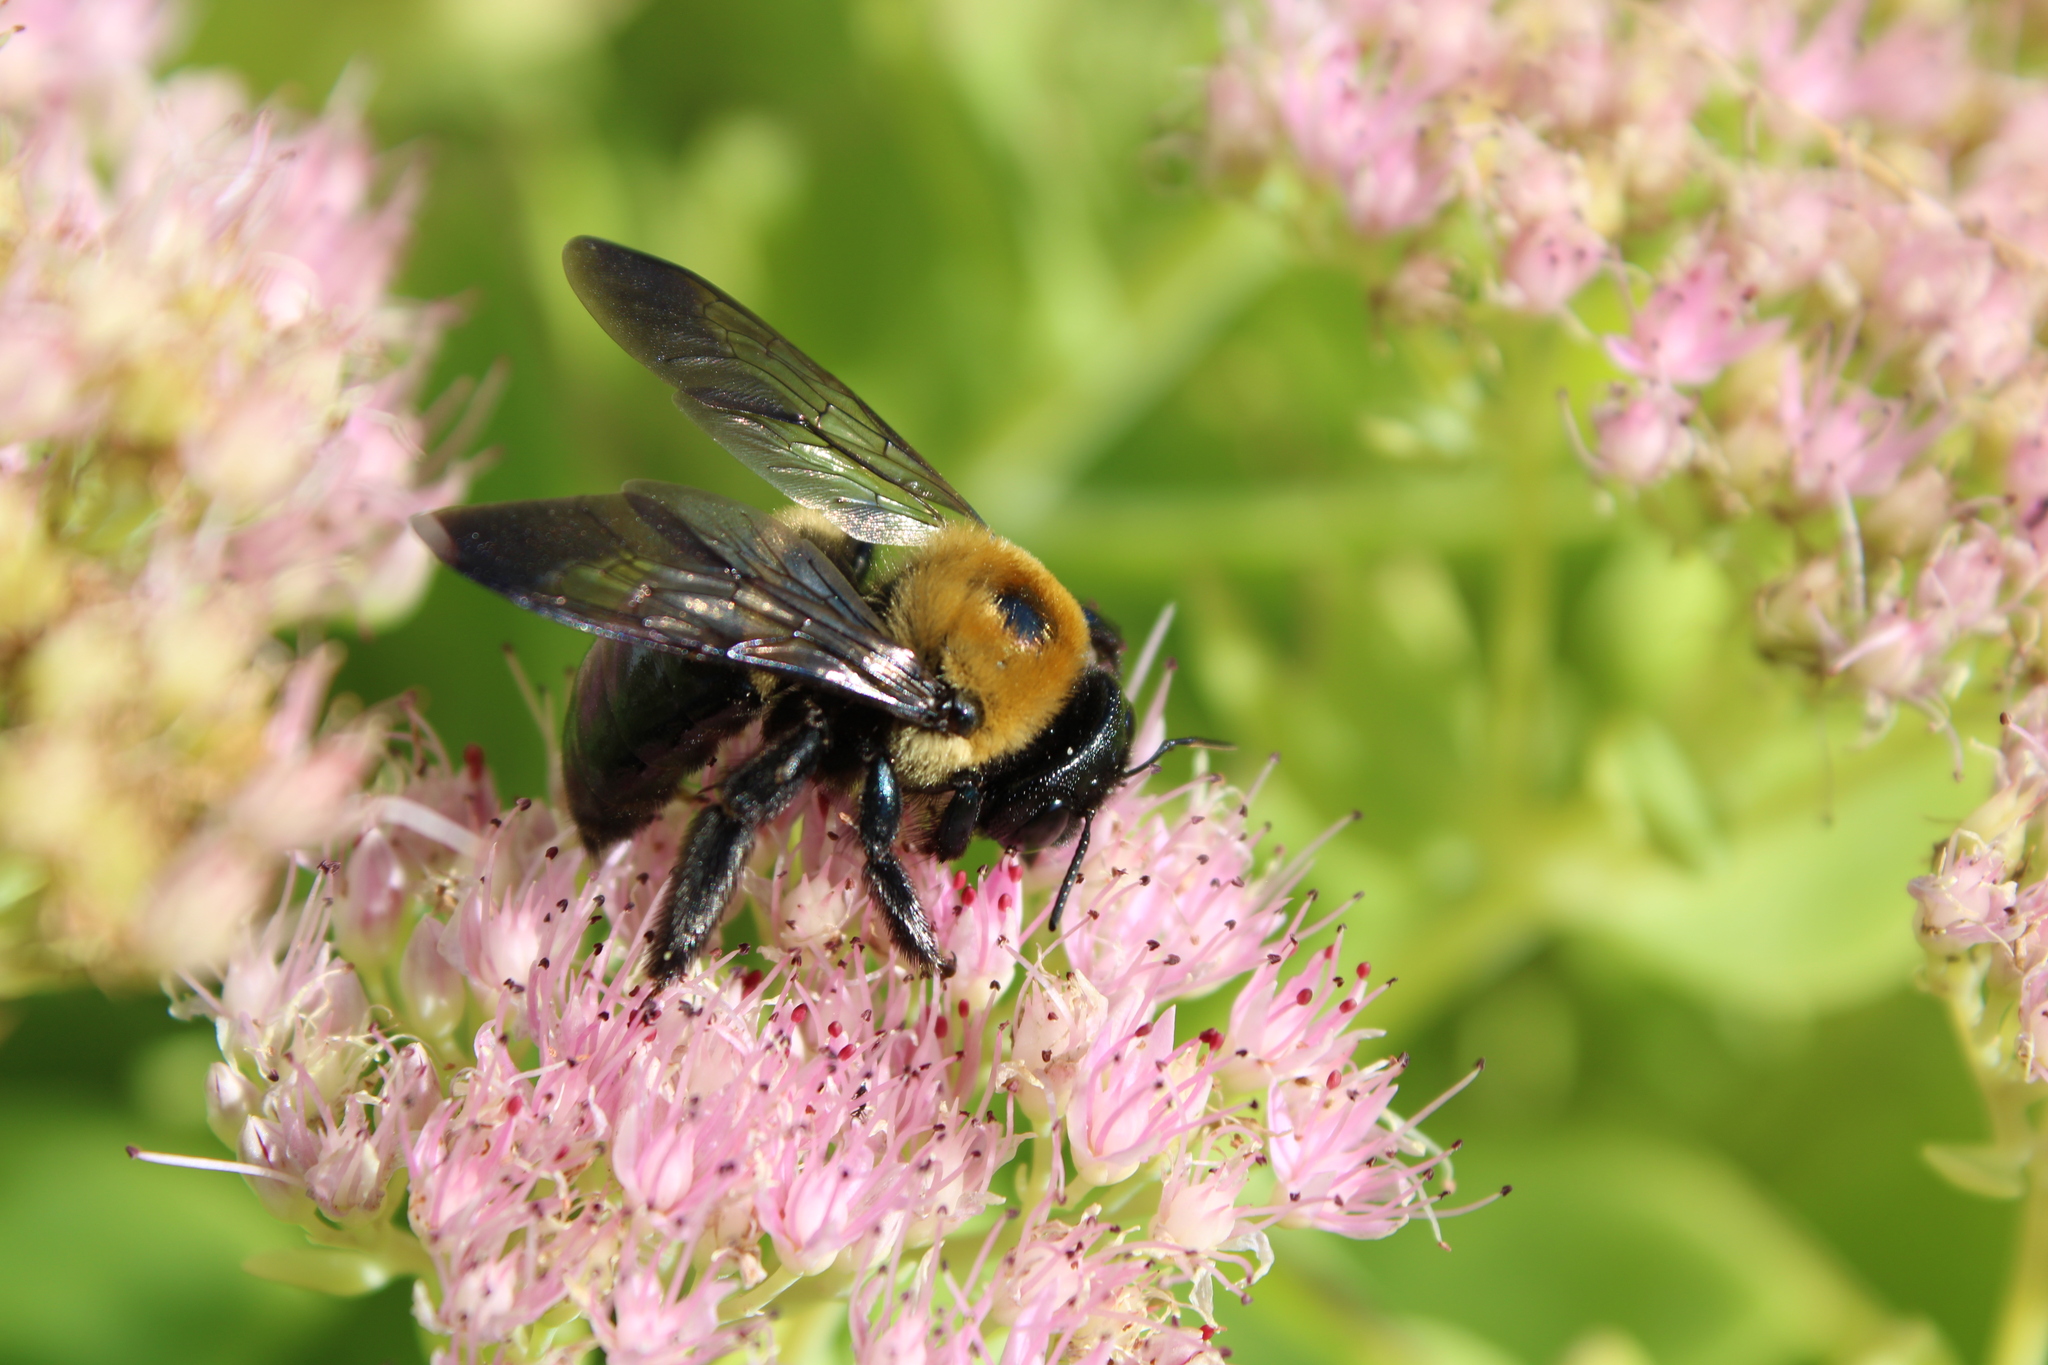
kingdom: Animalia
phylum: Arthropoda
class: Insecta
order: Hymenoptera
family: Apidae
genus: Xylocopa
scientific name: Xylocopa virginica
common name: Carpenter bee
